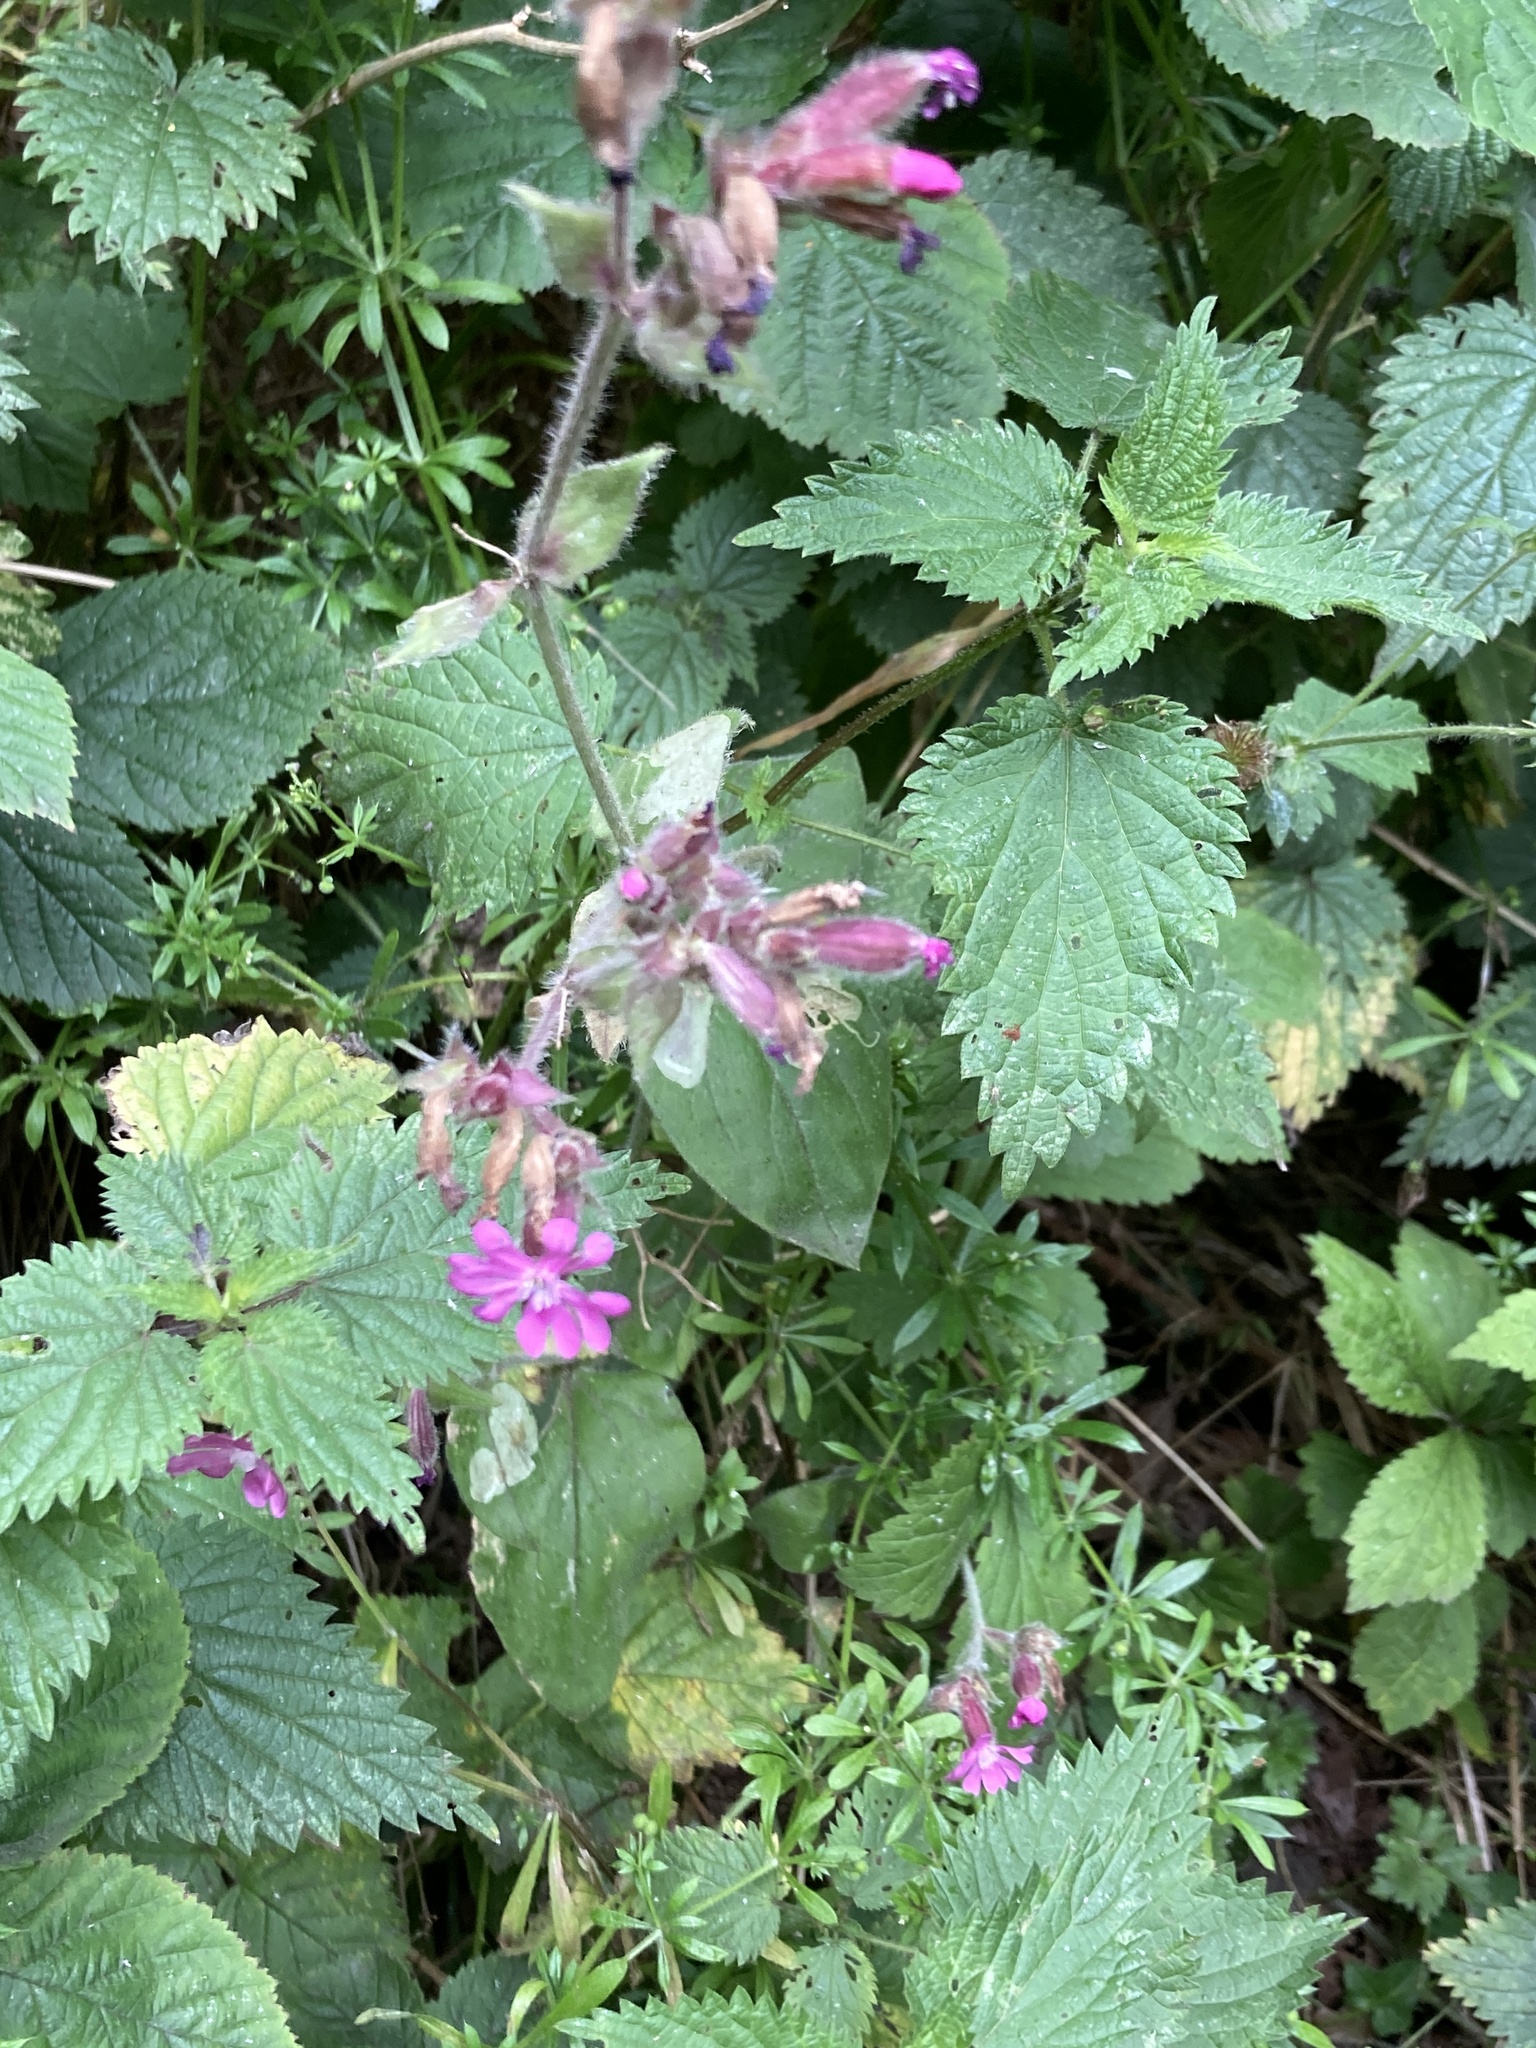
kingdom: Plantae
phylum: Tracheophyta
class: Magnoliopsida
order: Caryophyllales
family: Caryophyllaceae
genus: Silene
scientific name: Silene dioica
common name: Red campion
